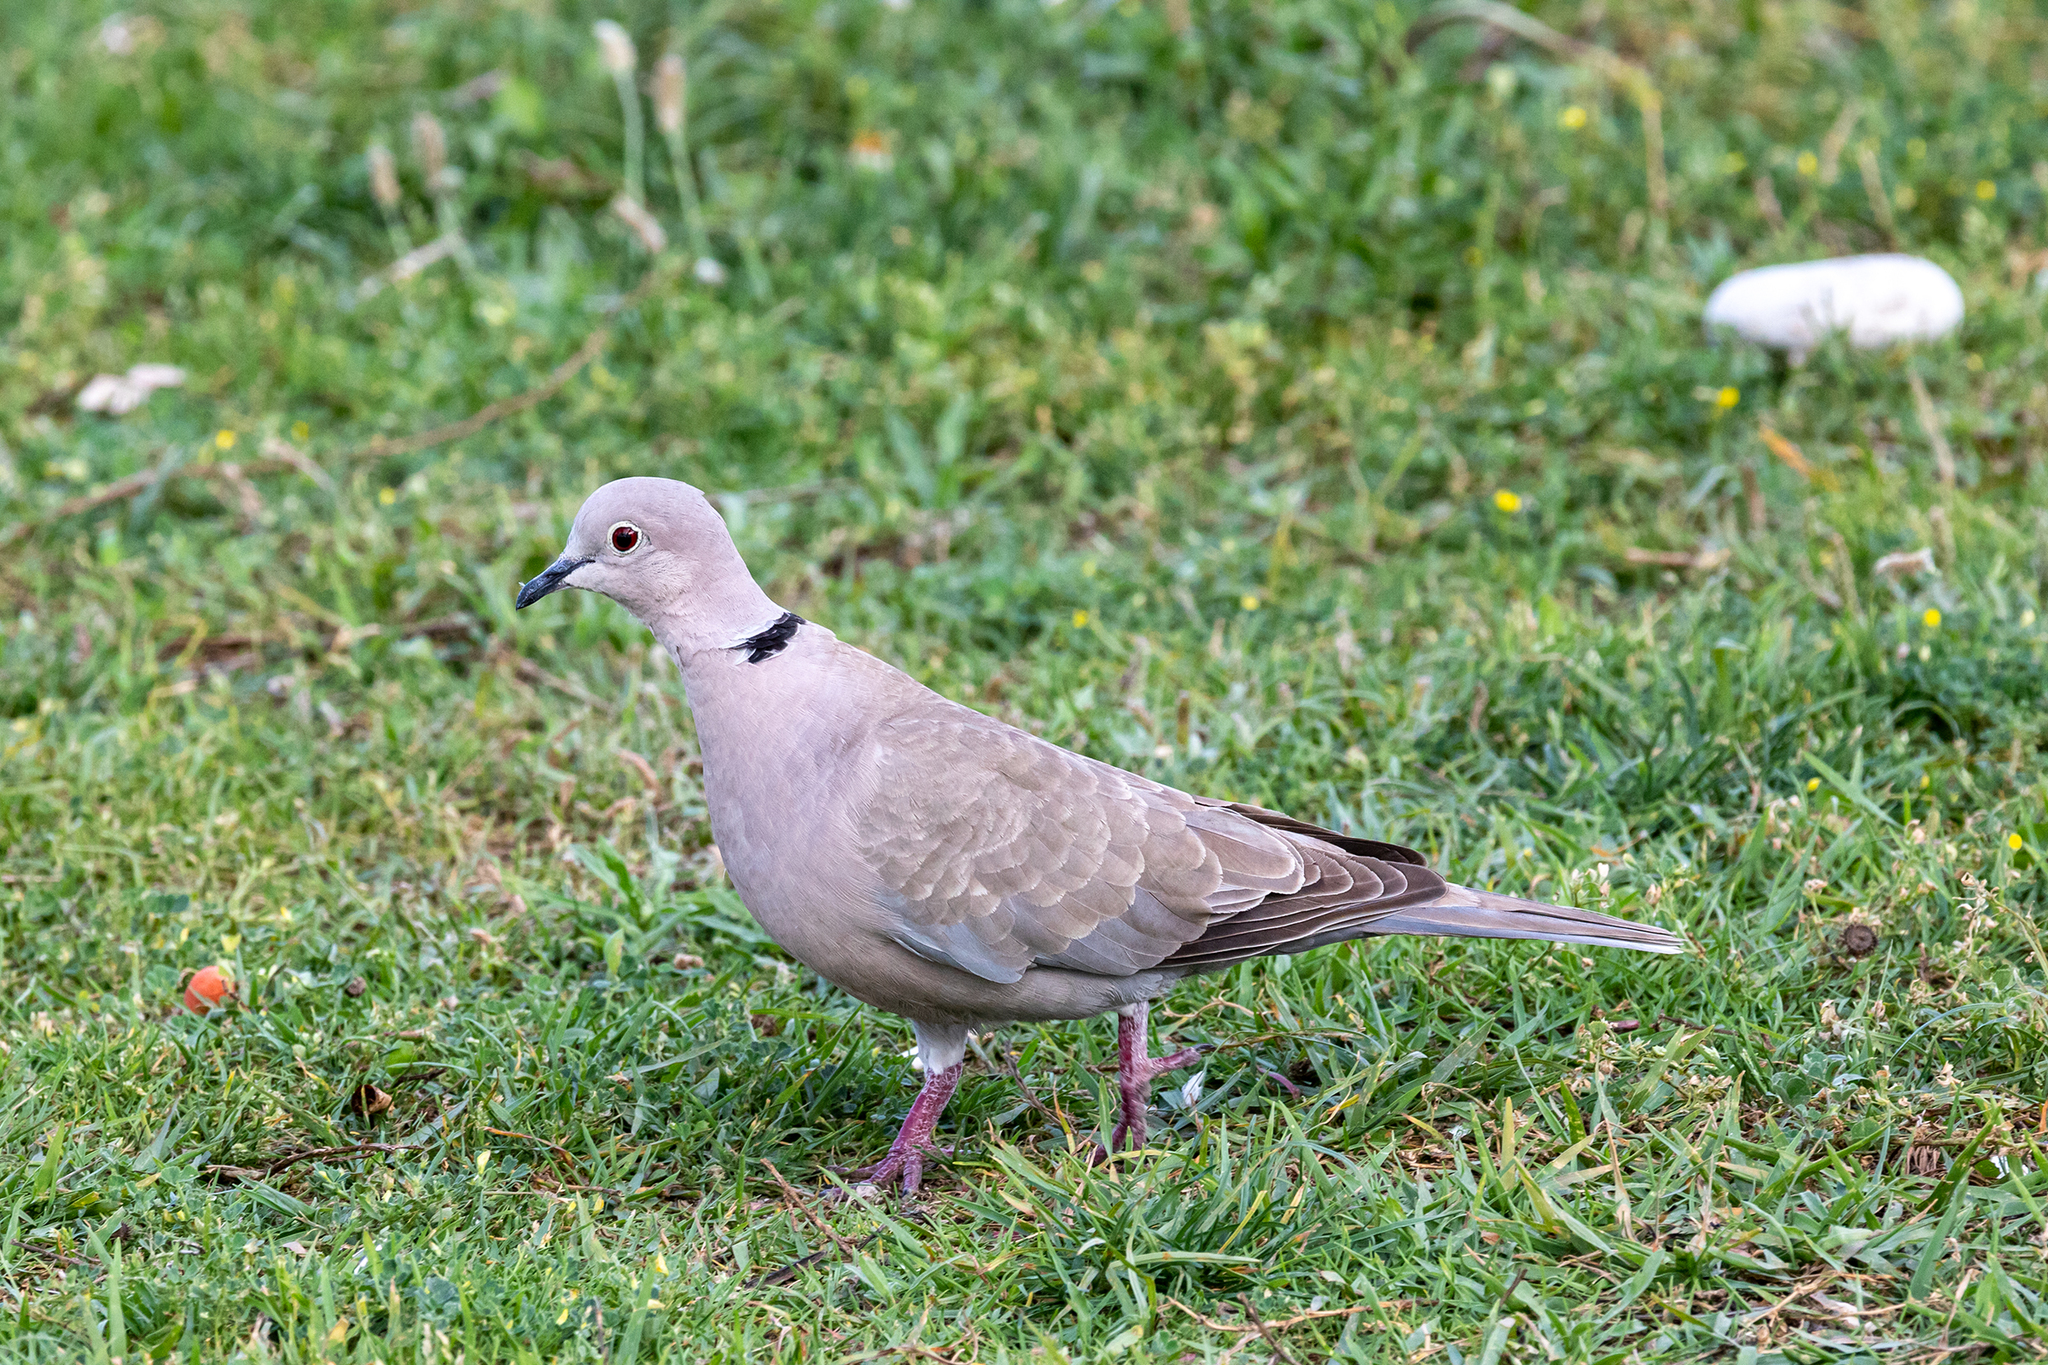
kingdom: Animalia
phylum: Chordata
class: Aves
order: Columbiformes
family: Columbidae
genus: Streptopelia
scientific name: Streptopelia decaocto
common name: Eurasian collared dove
